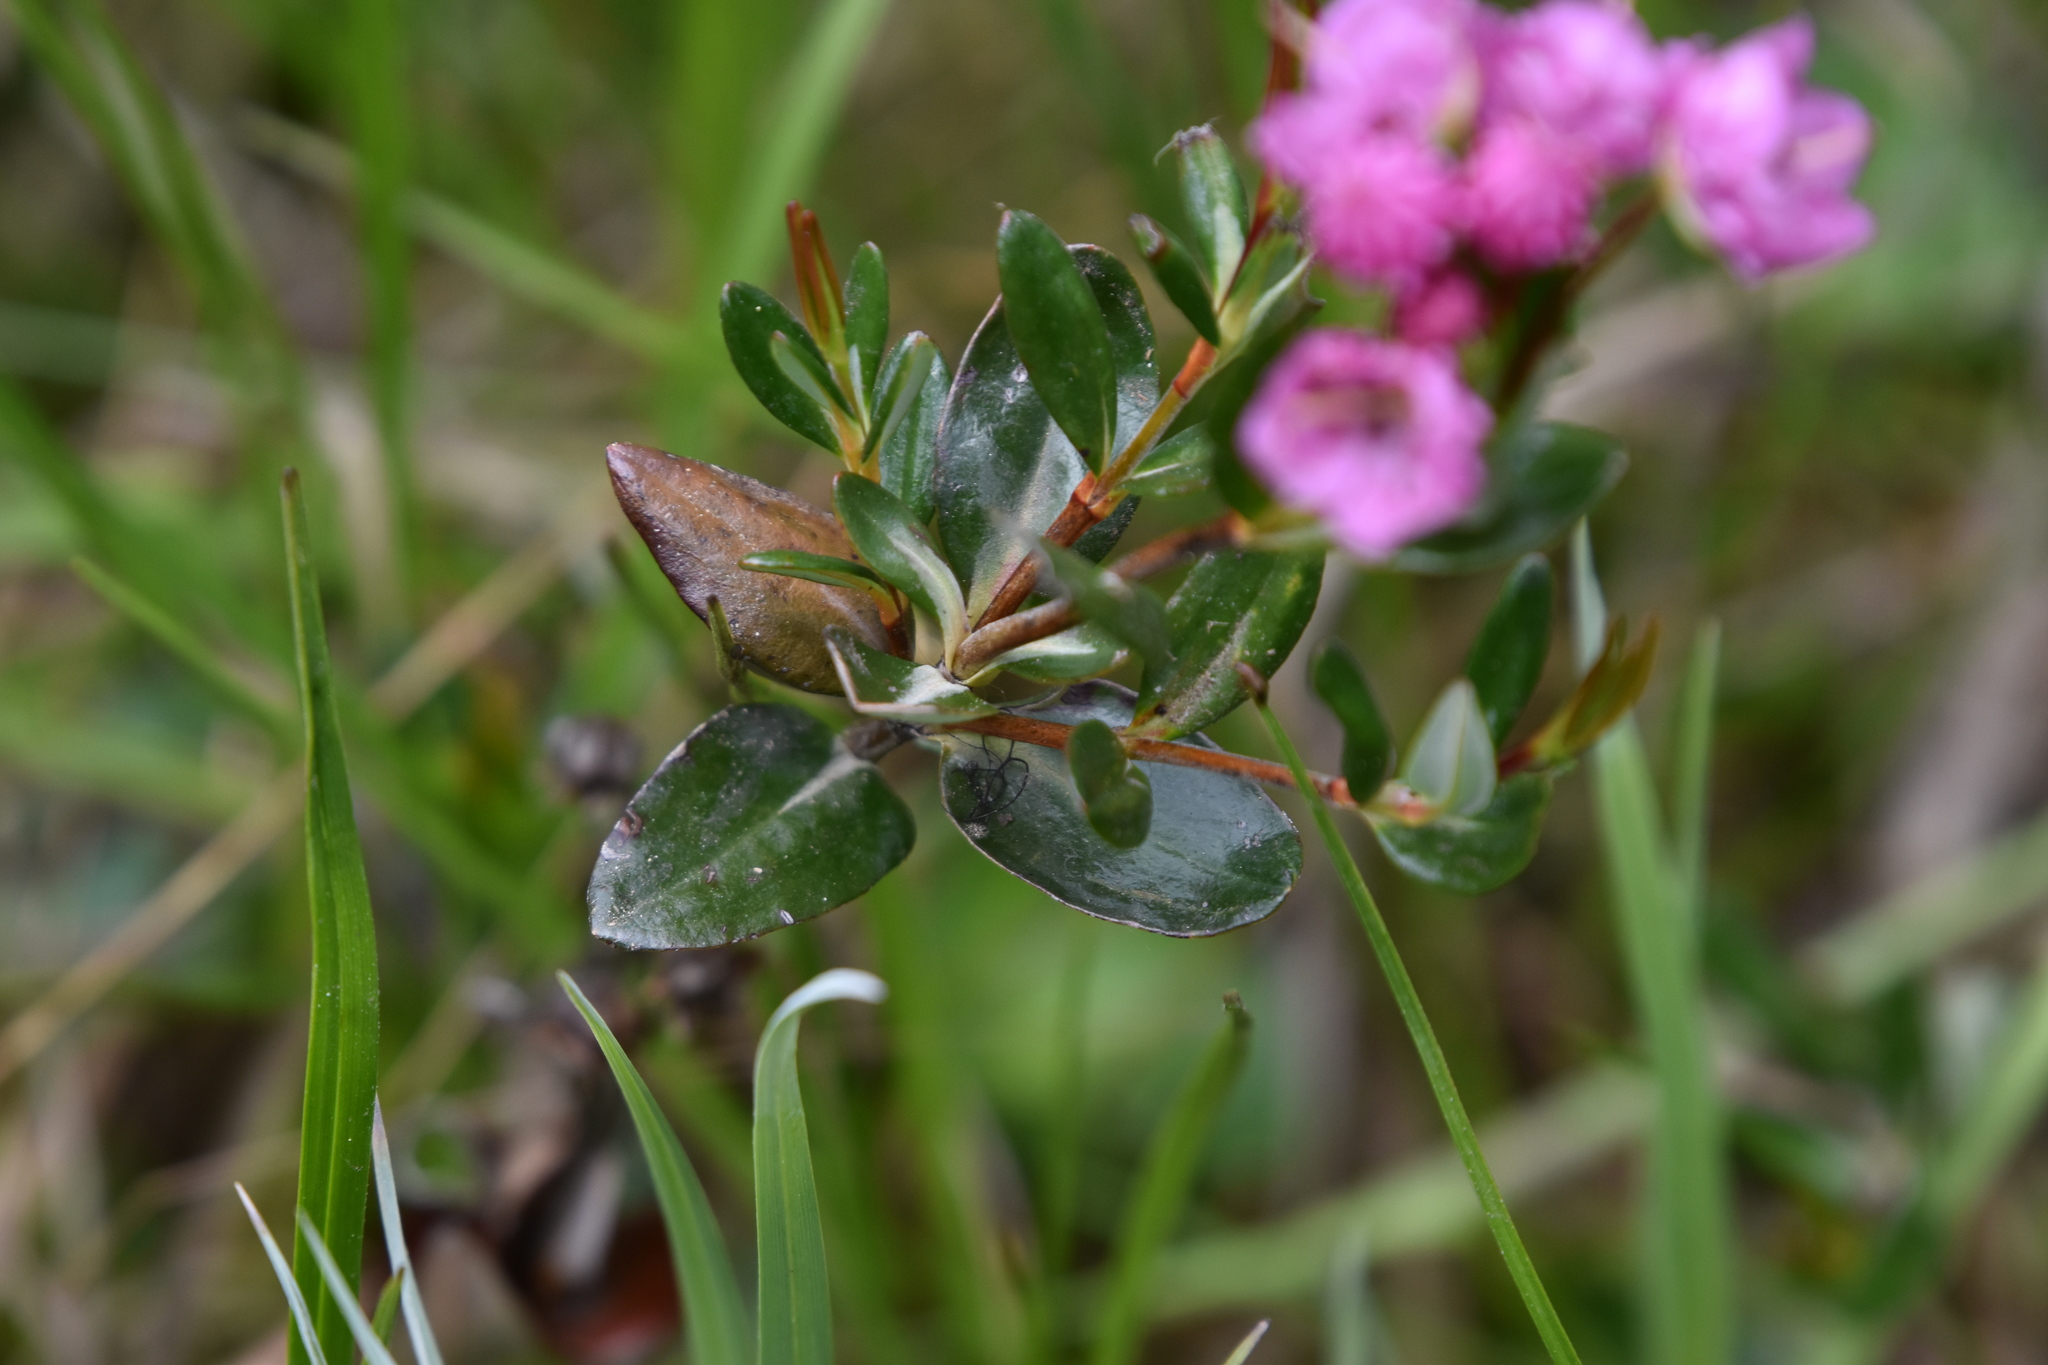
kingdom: Plantae
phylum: Tracheophyta
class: Magnoliopsida
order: Ericales
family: Ericaceae
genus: Kalmia
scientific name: Kalmia microphylla
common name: Alpine bog laurel
